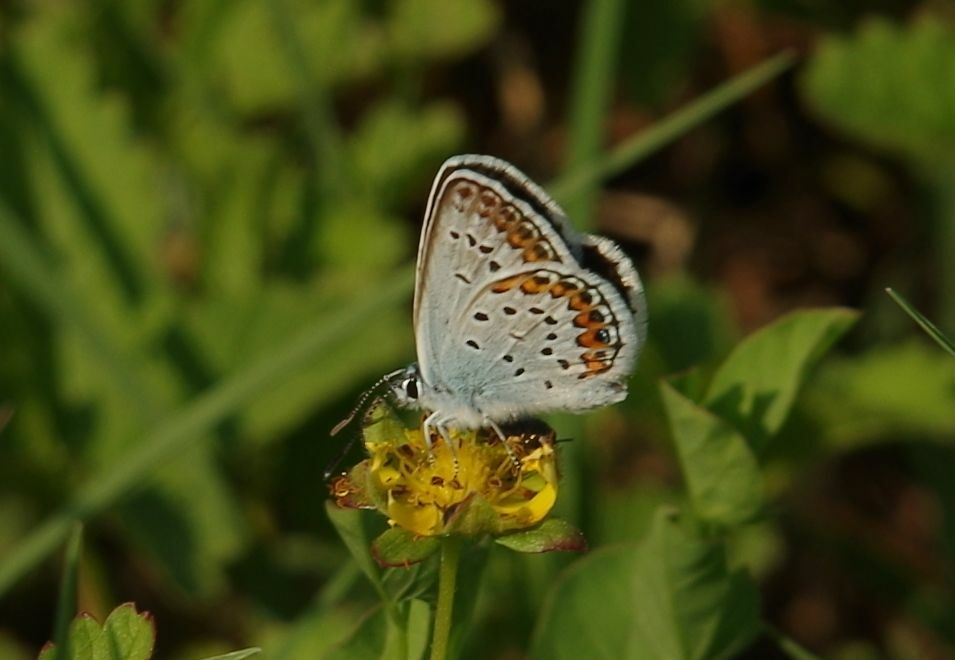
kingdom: Animalia
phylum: Arthropoda
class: Insecta
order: Lepidoptera
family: Lycaenidae
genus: Plebejus
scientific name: Plebejus argus
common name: Silver-studded blue
